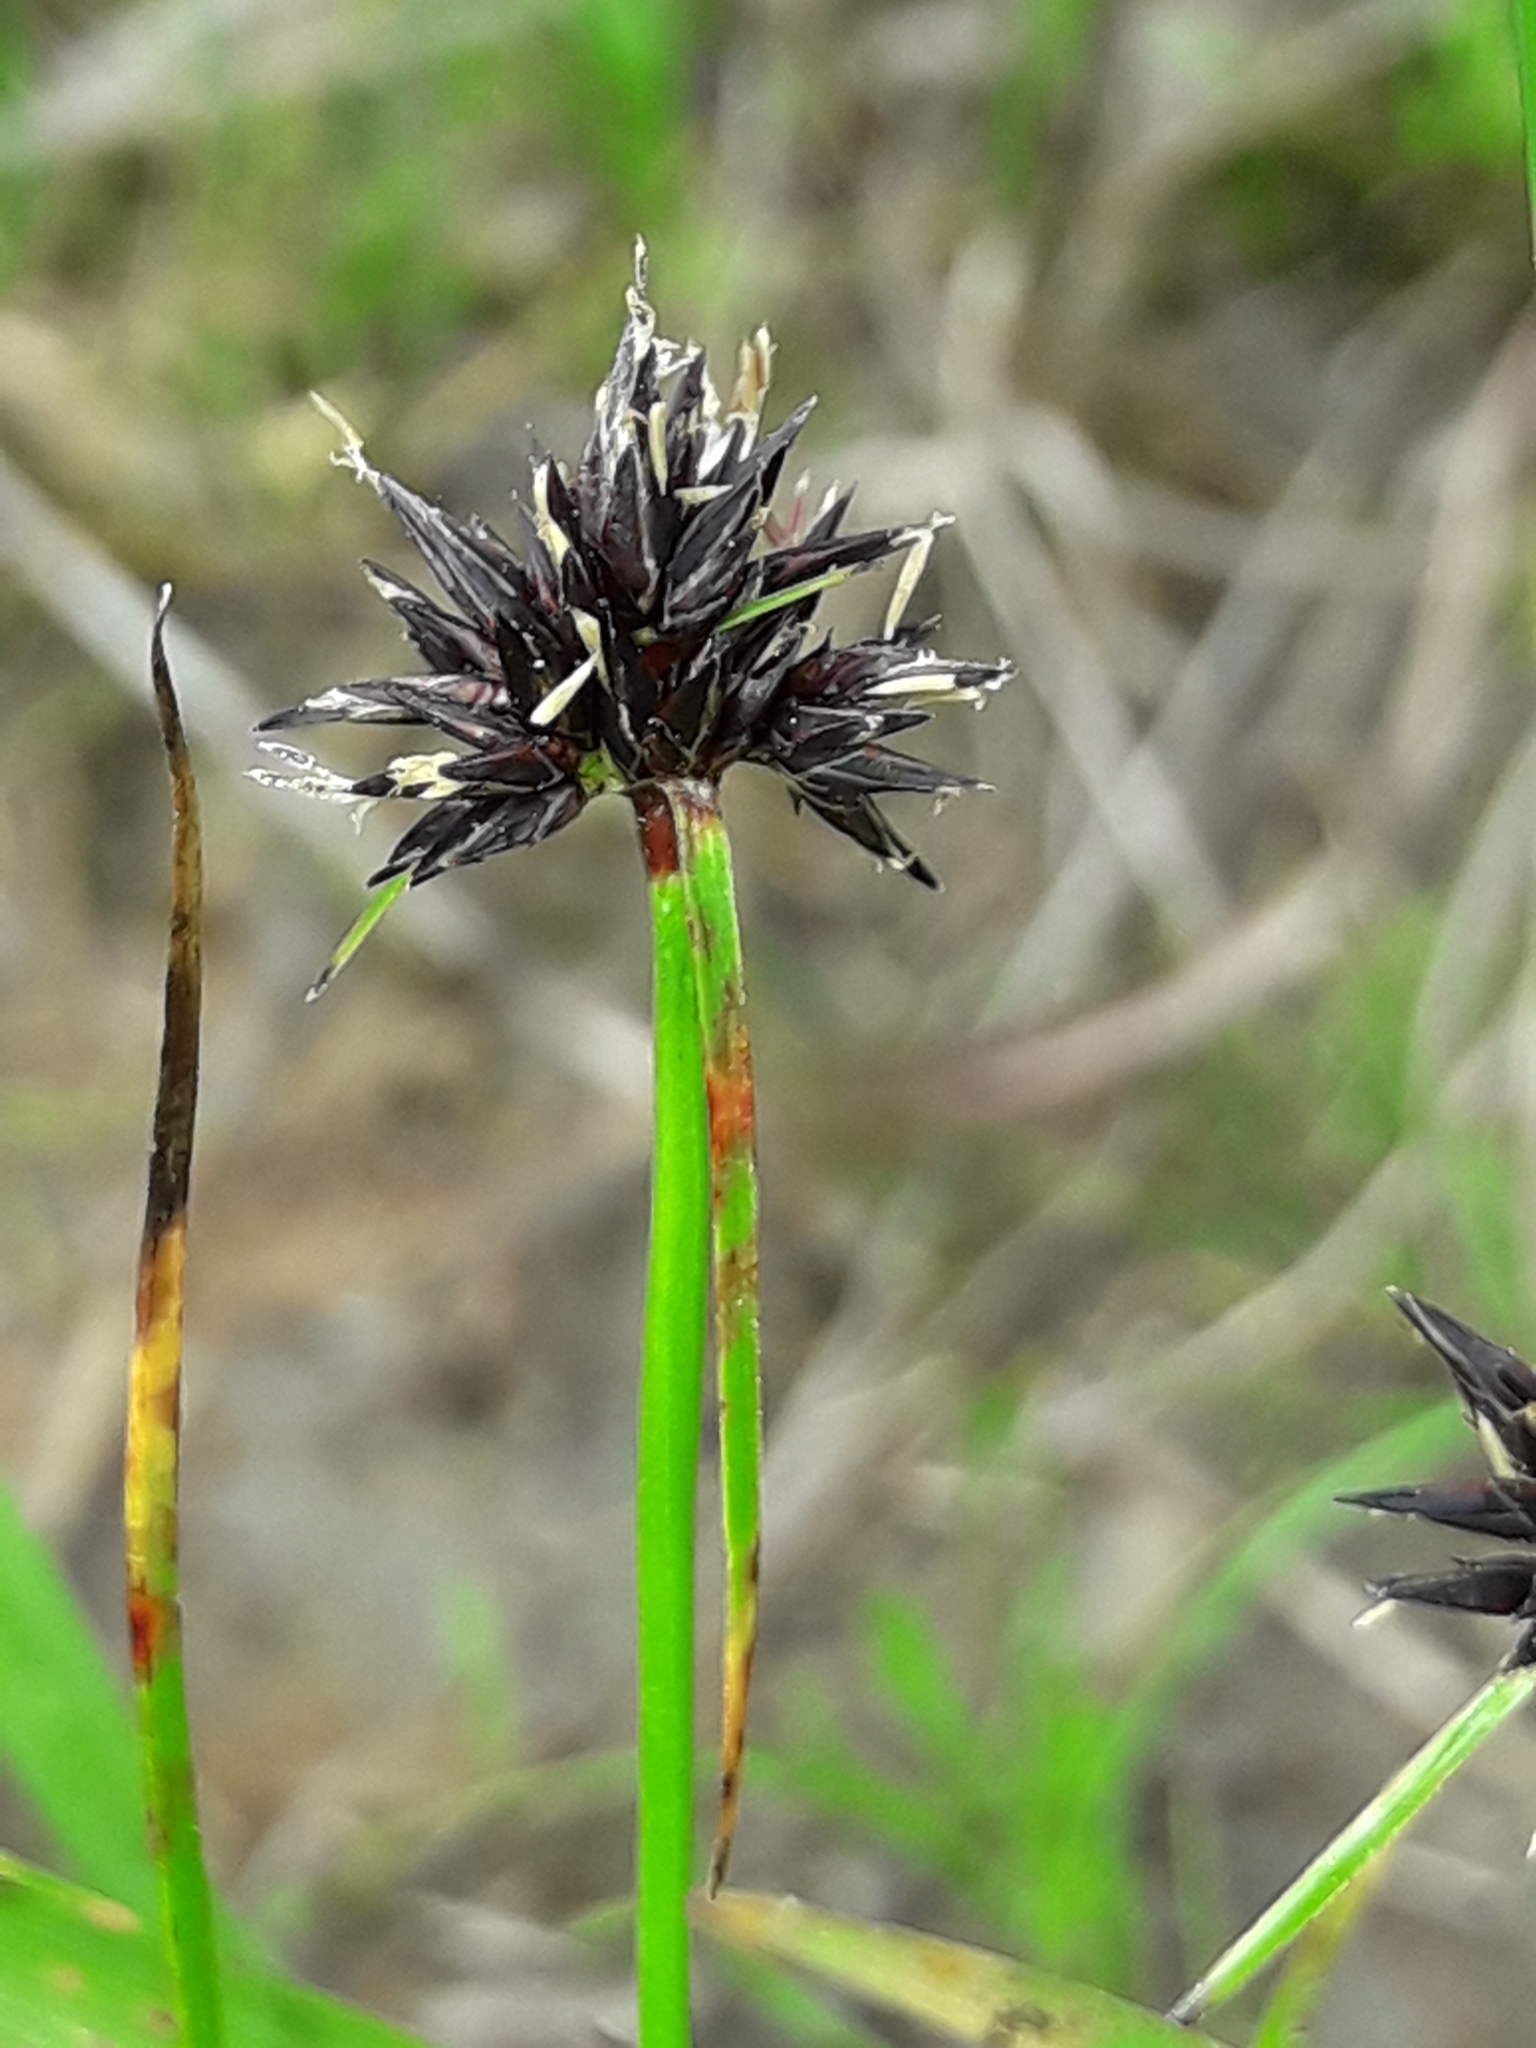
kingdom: Plantae
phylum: Tracheophyta
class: Liliopsida
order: Poales
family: Cyperaceae
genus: Schoenus
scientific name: Schoenus apogon
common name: Smooth bogrush
